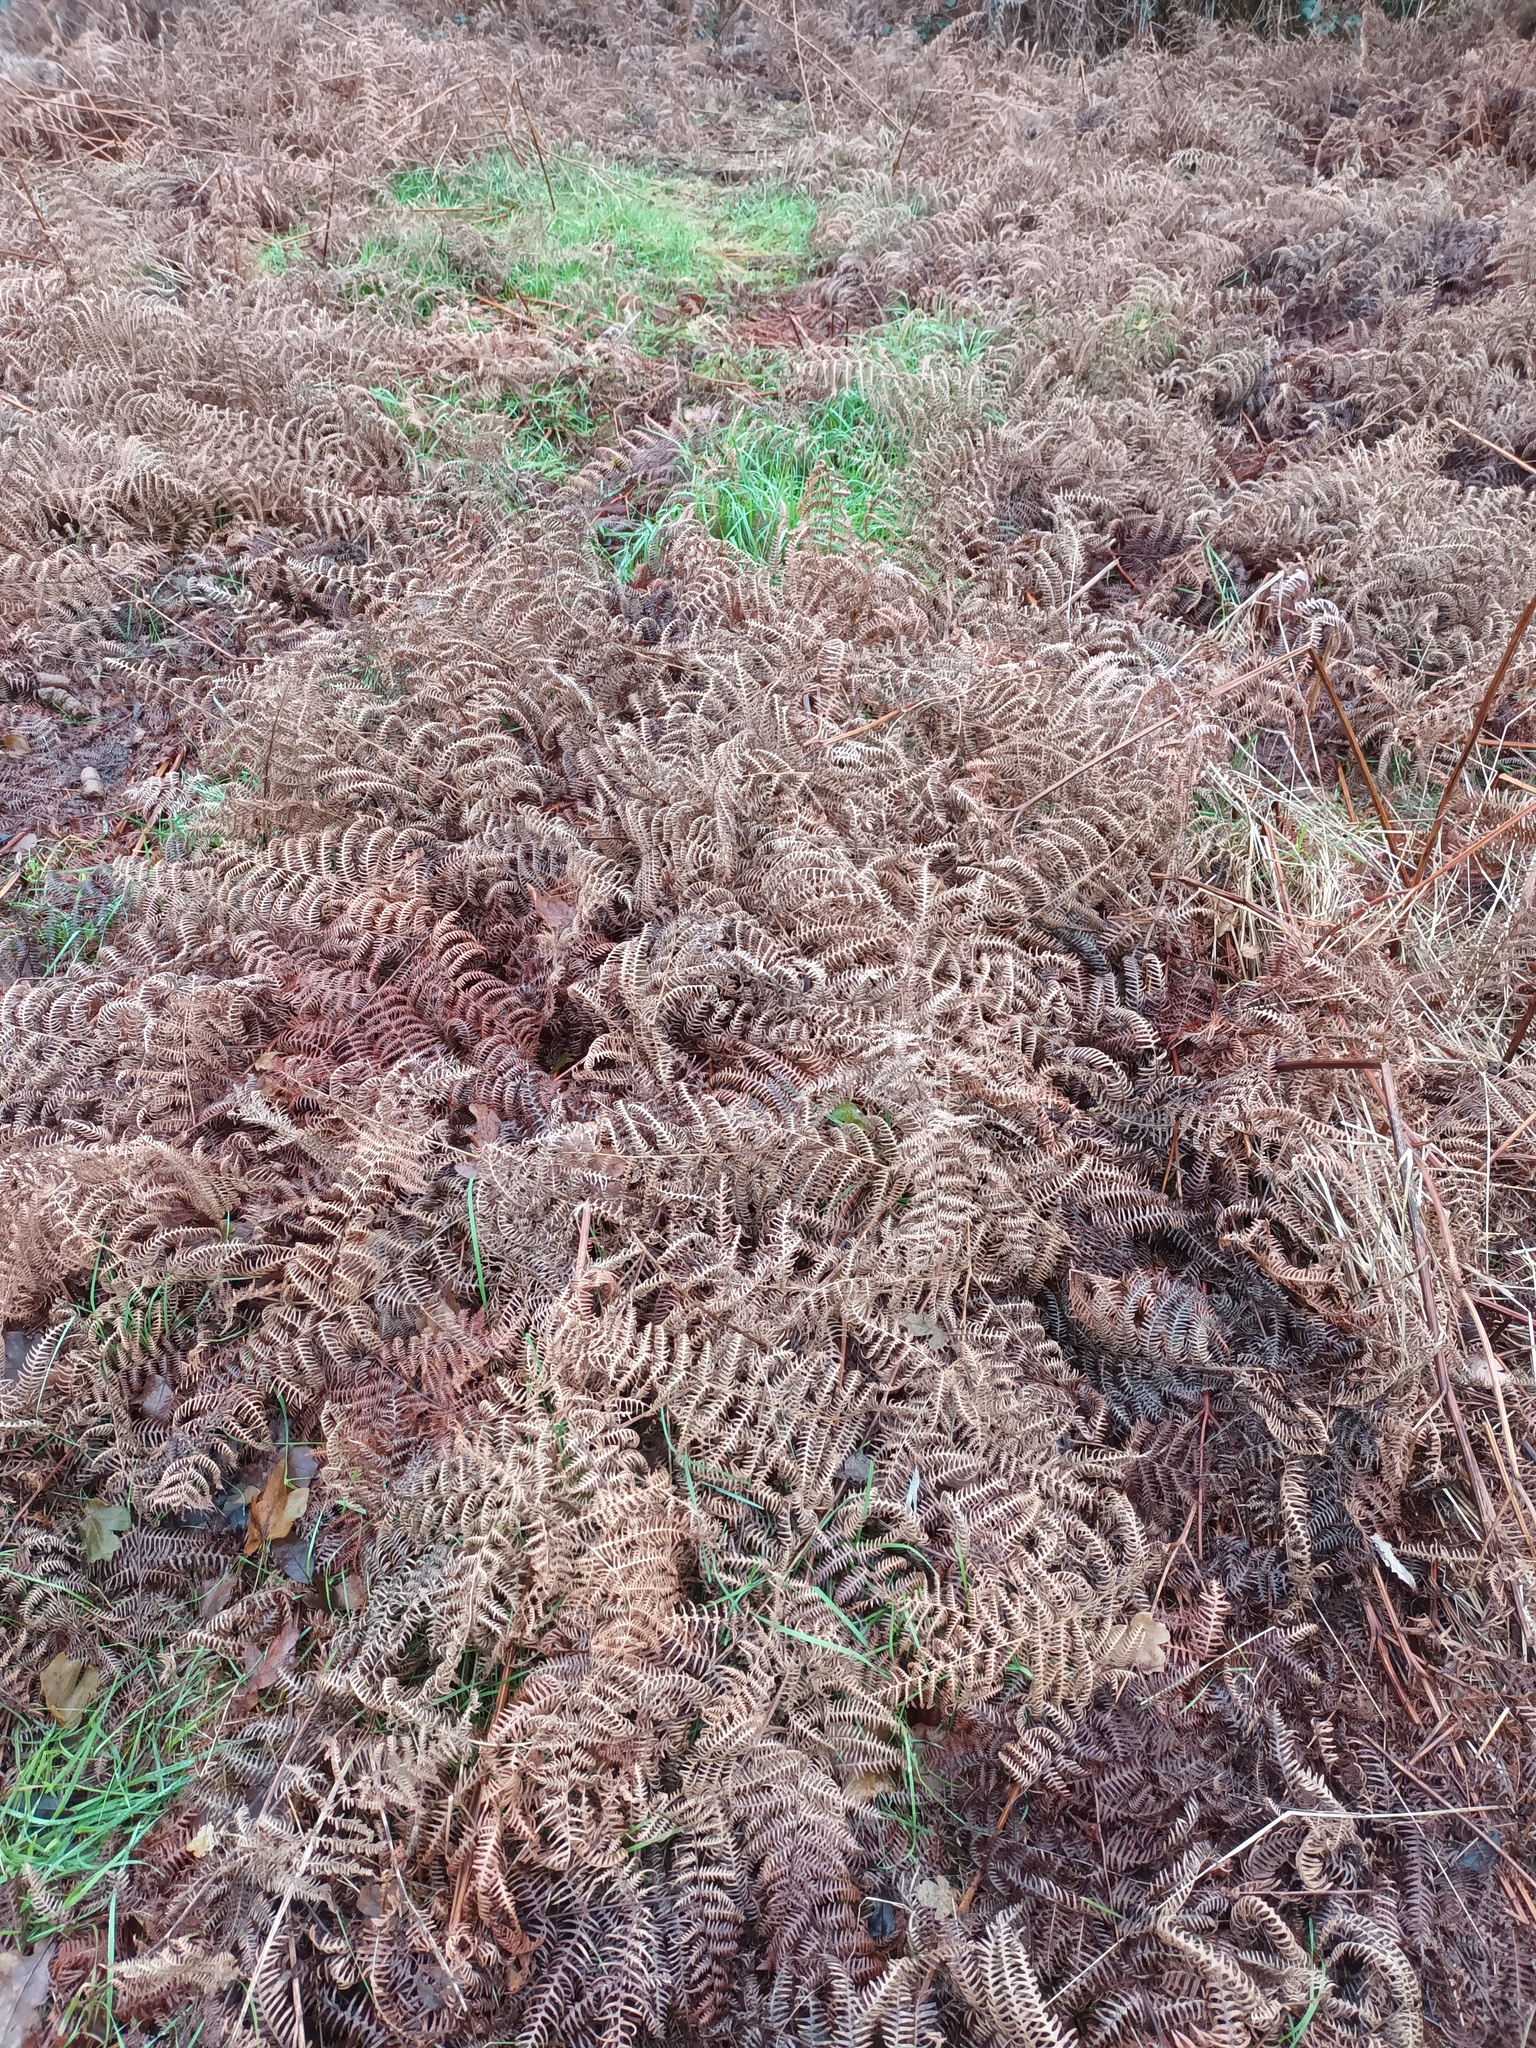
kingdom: Plantae
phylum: Tracheophyta
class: Polypodiopsida
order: Polypodiales
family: Dennstaedtiaceae
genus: Pteridium
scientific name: Pteridium aquilinum
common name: Bracken
